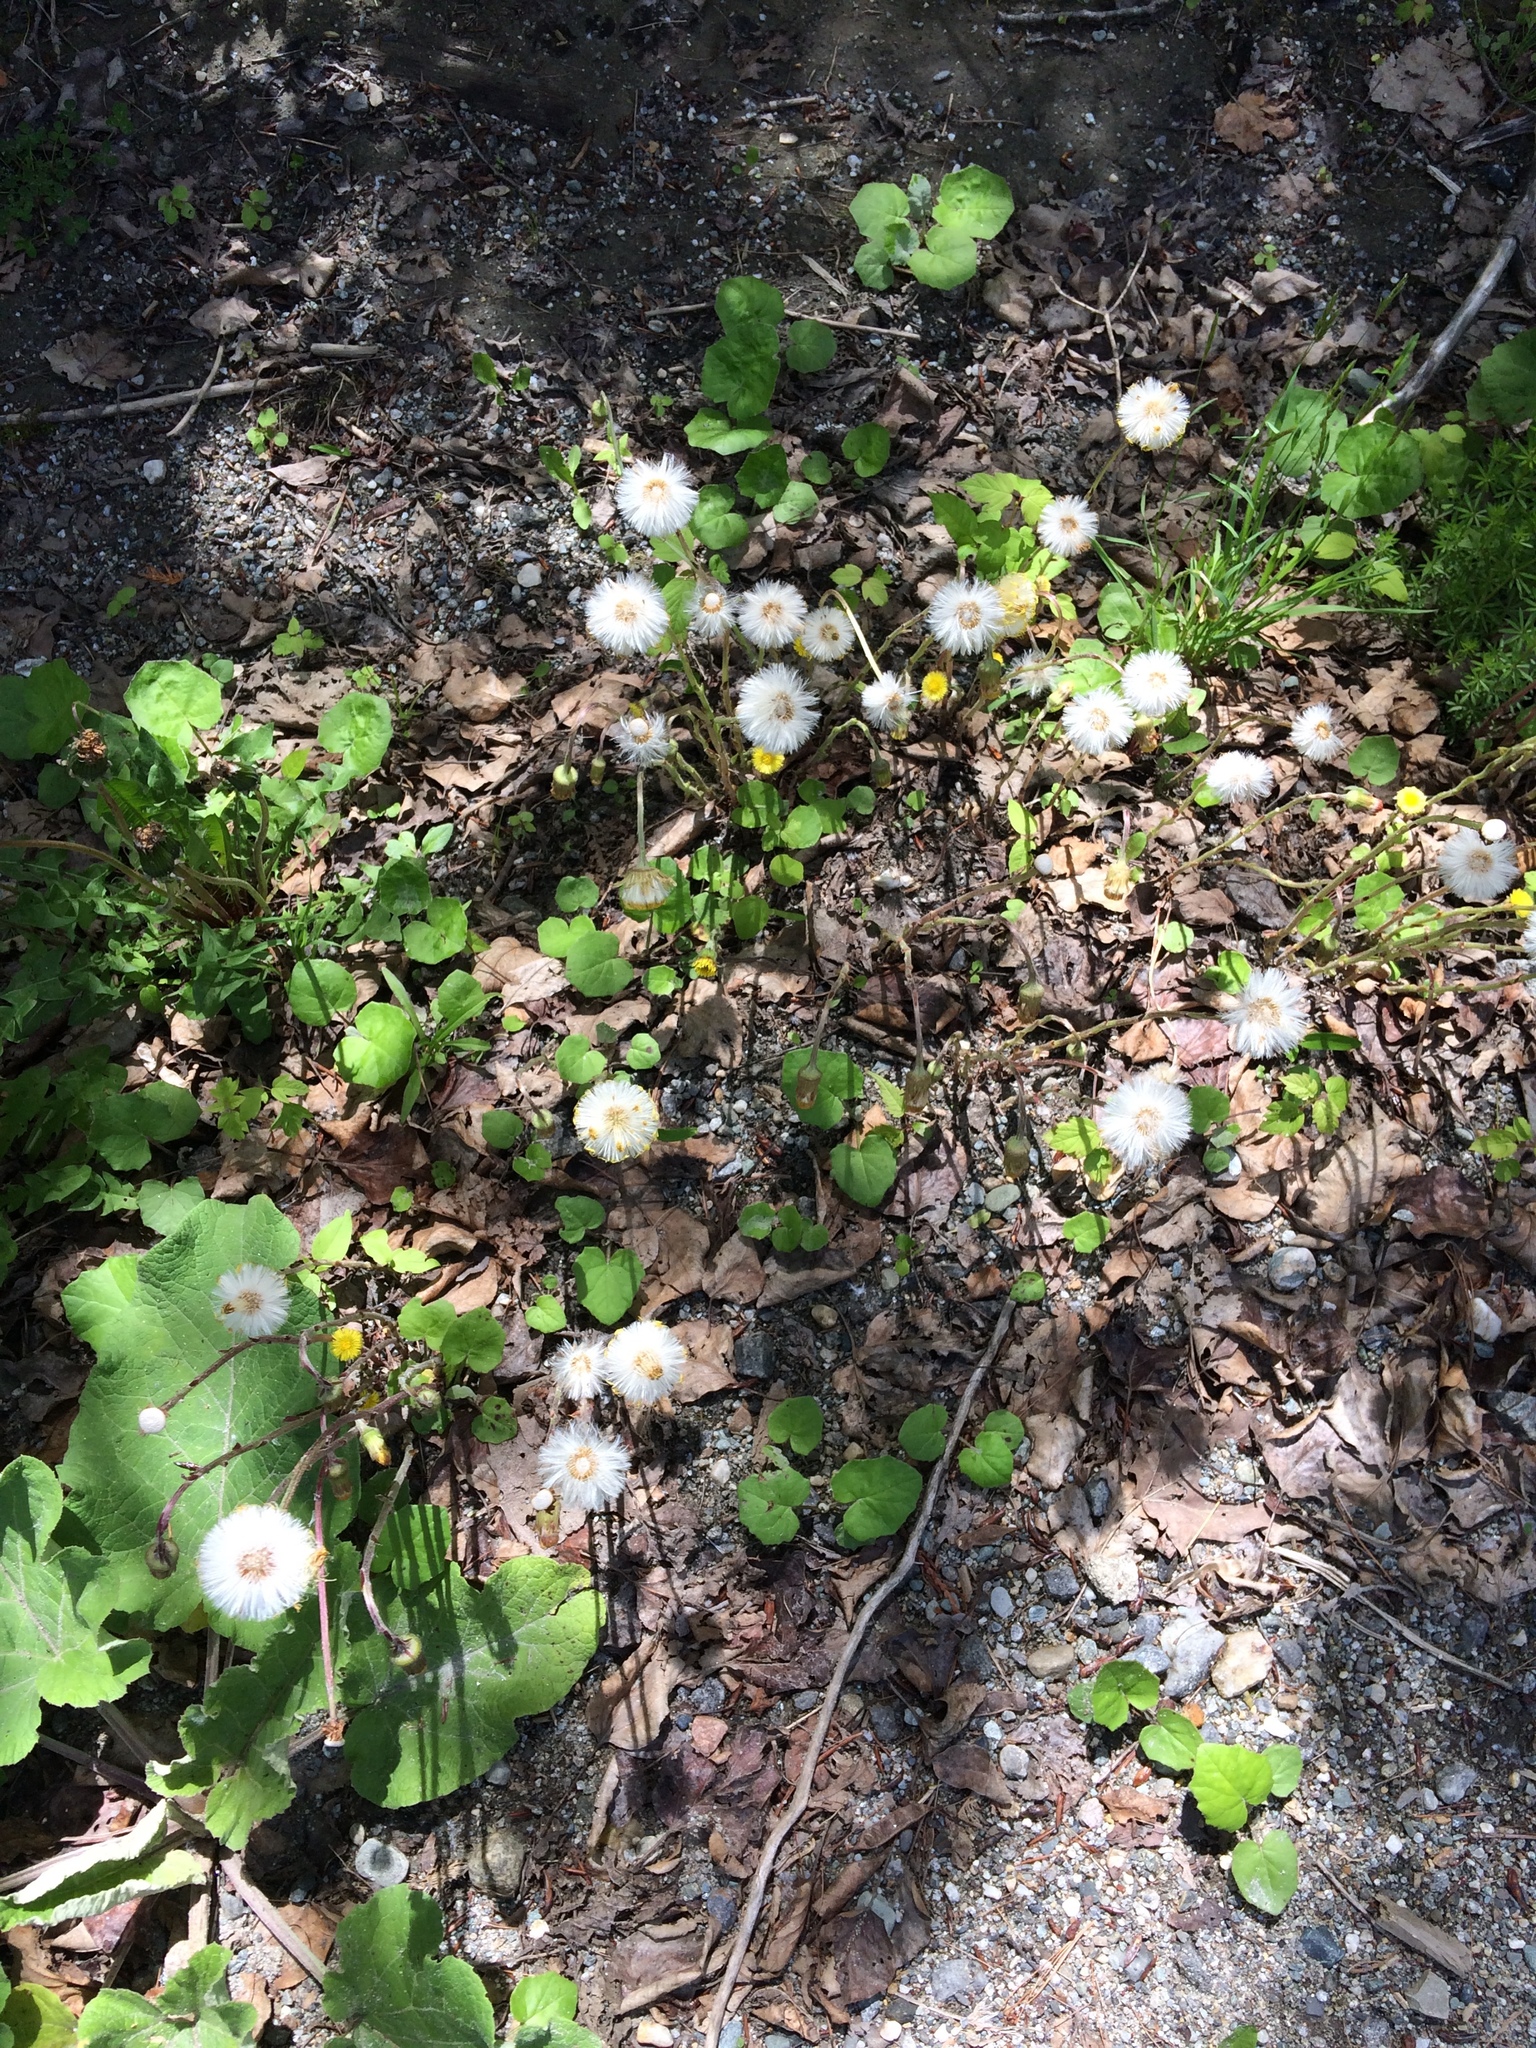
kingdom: Plantae
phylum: Tracheophyta
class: Magnoliopsida
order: Asterales
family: Asteraceae
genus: Tussilago
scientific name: Tussilago farfara
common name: Coltsfoot
